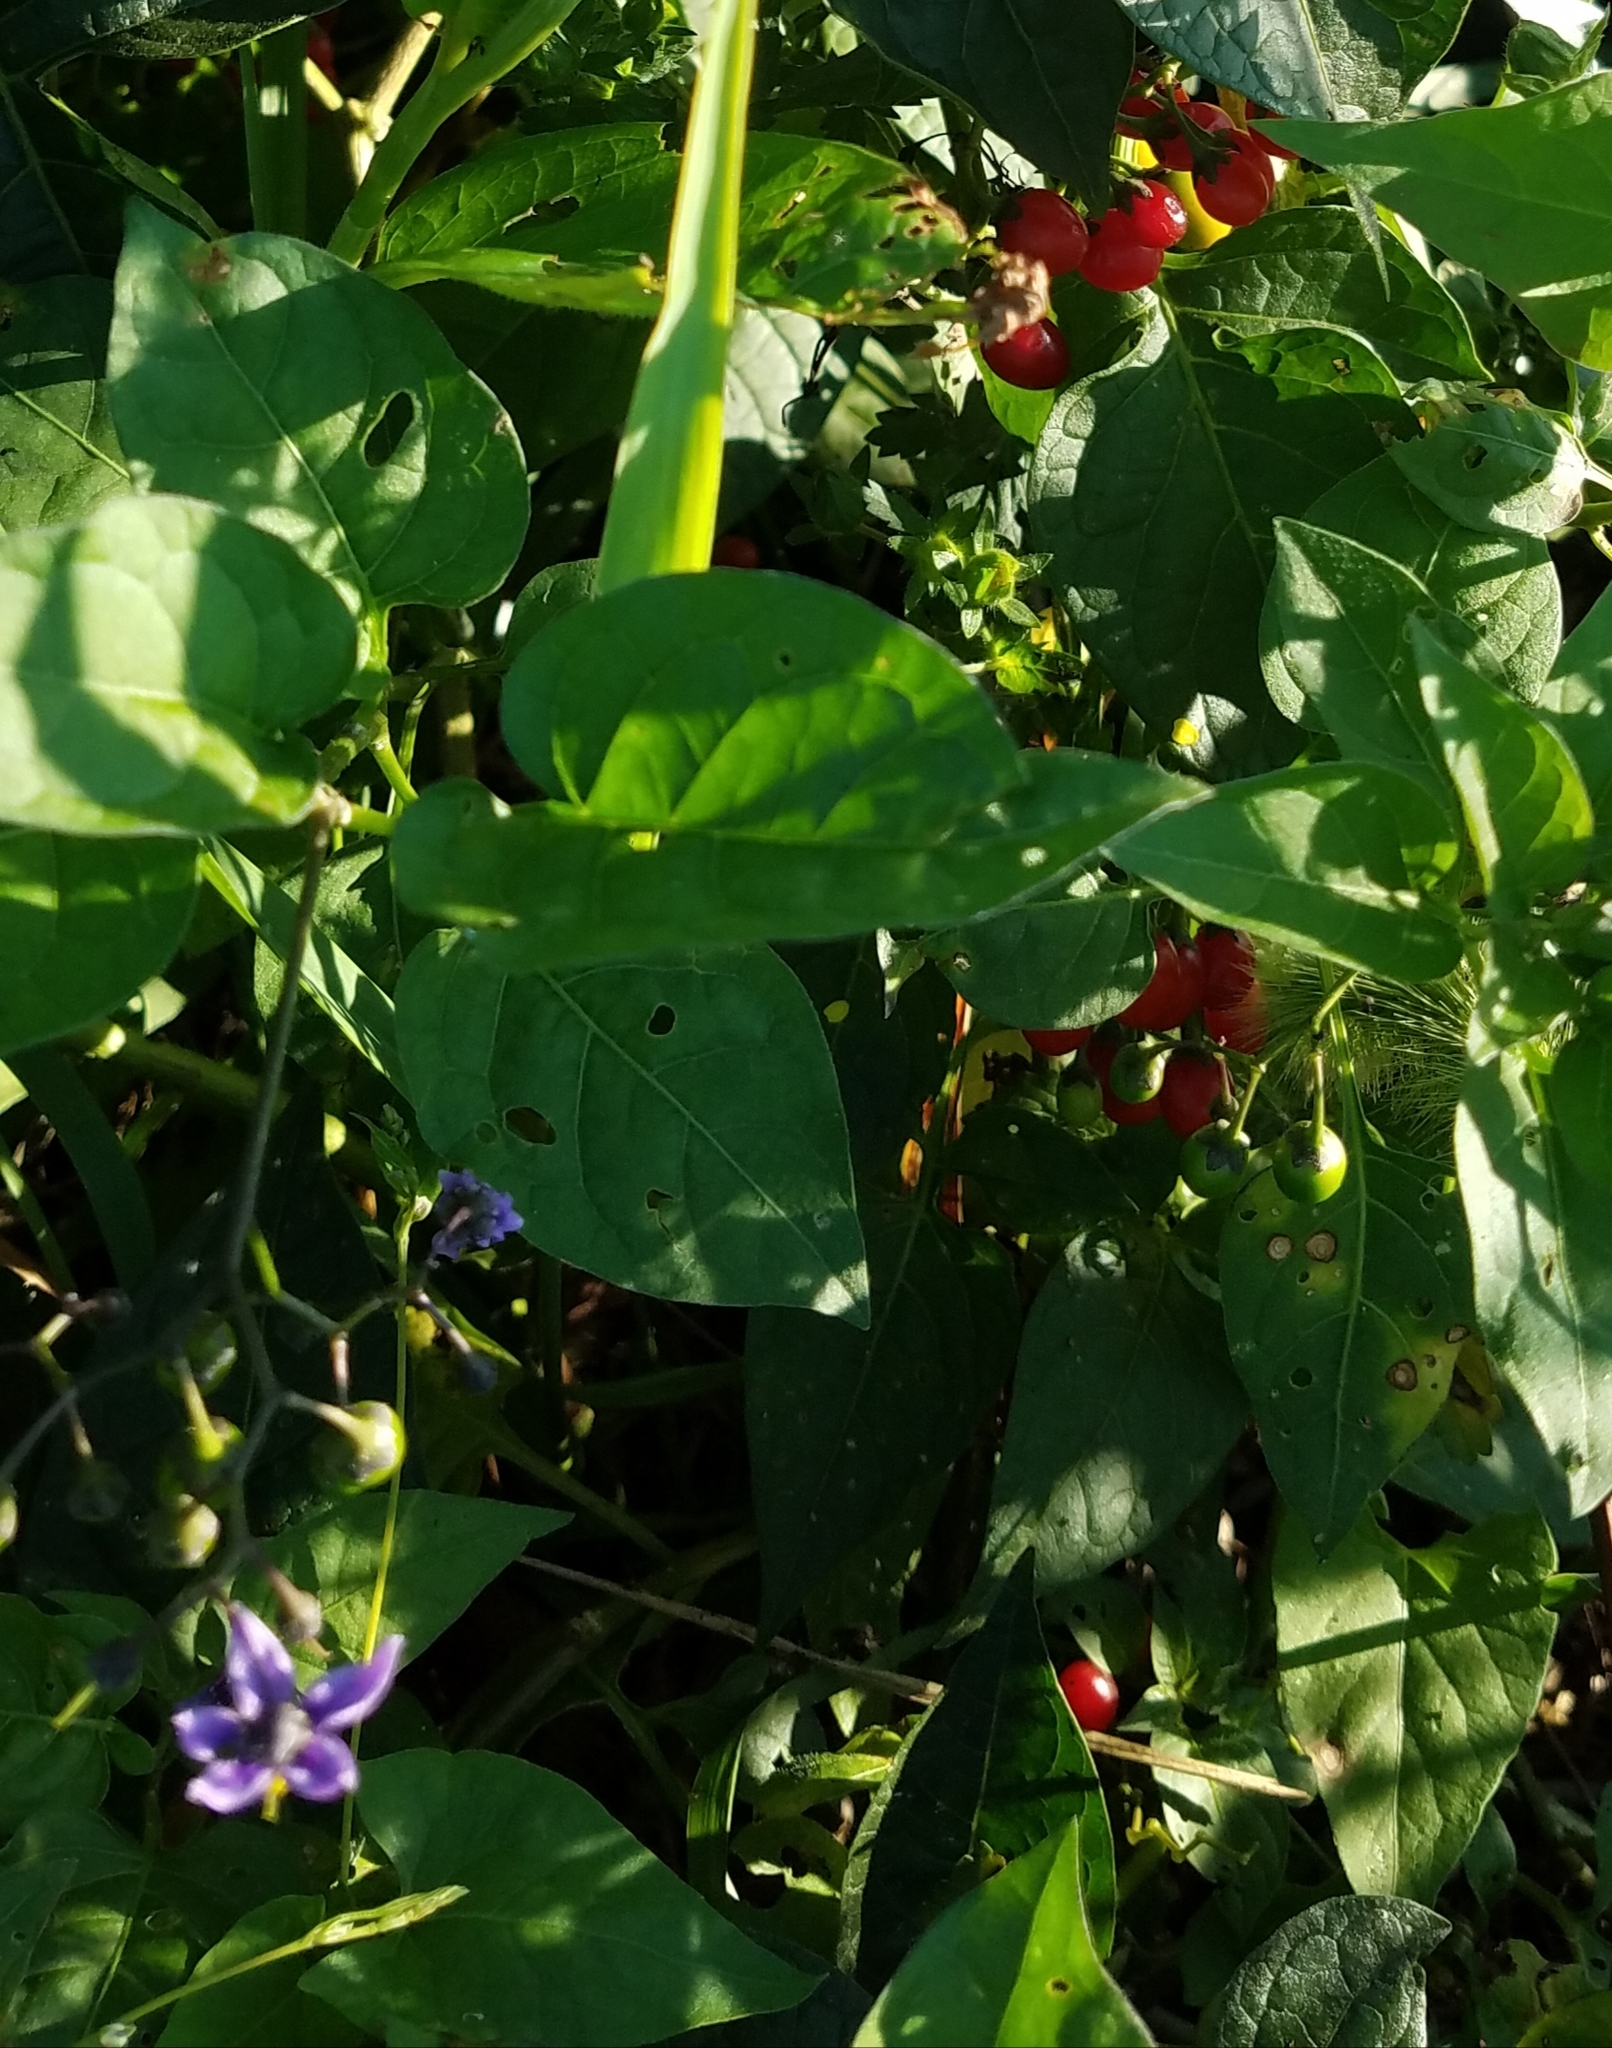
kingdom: Plantae
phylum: Tracheophyta
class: Magnoliopsida
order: Solanales
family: Solanaceae
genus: Solanum
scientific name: Solanum dulcamara
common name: Climbing nightshade
